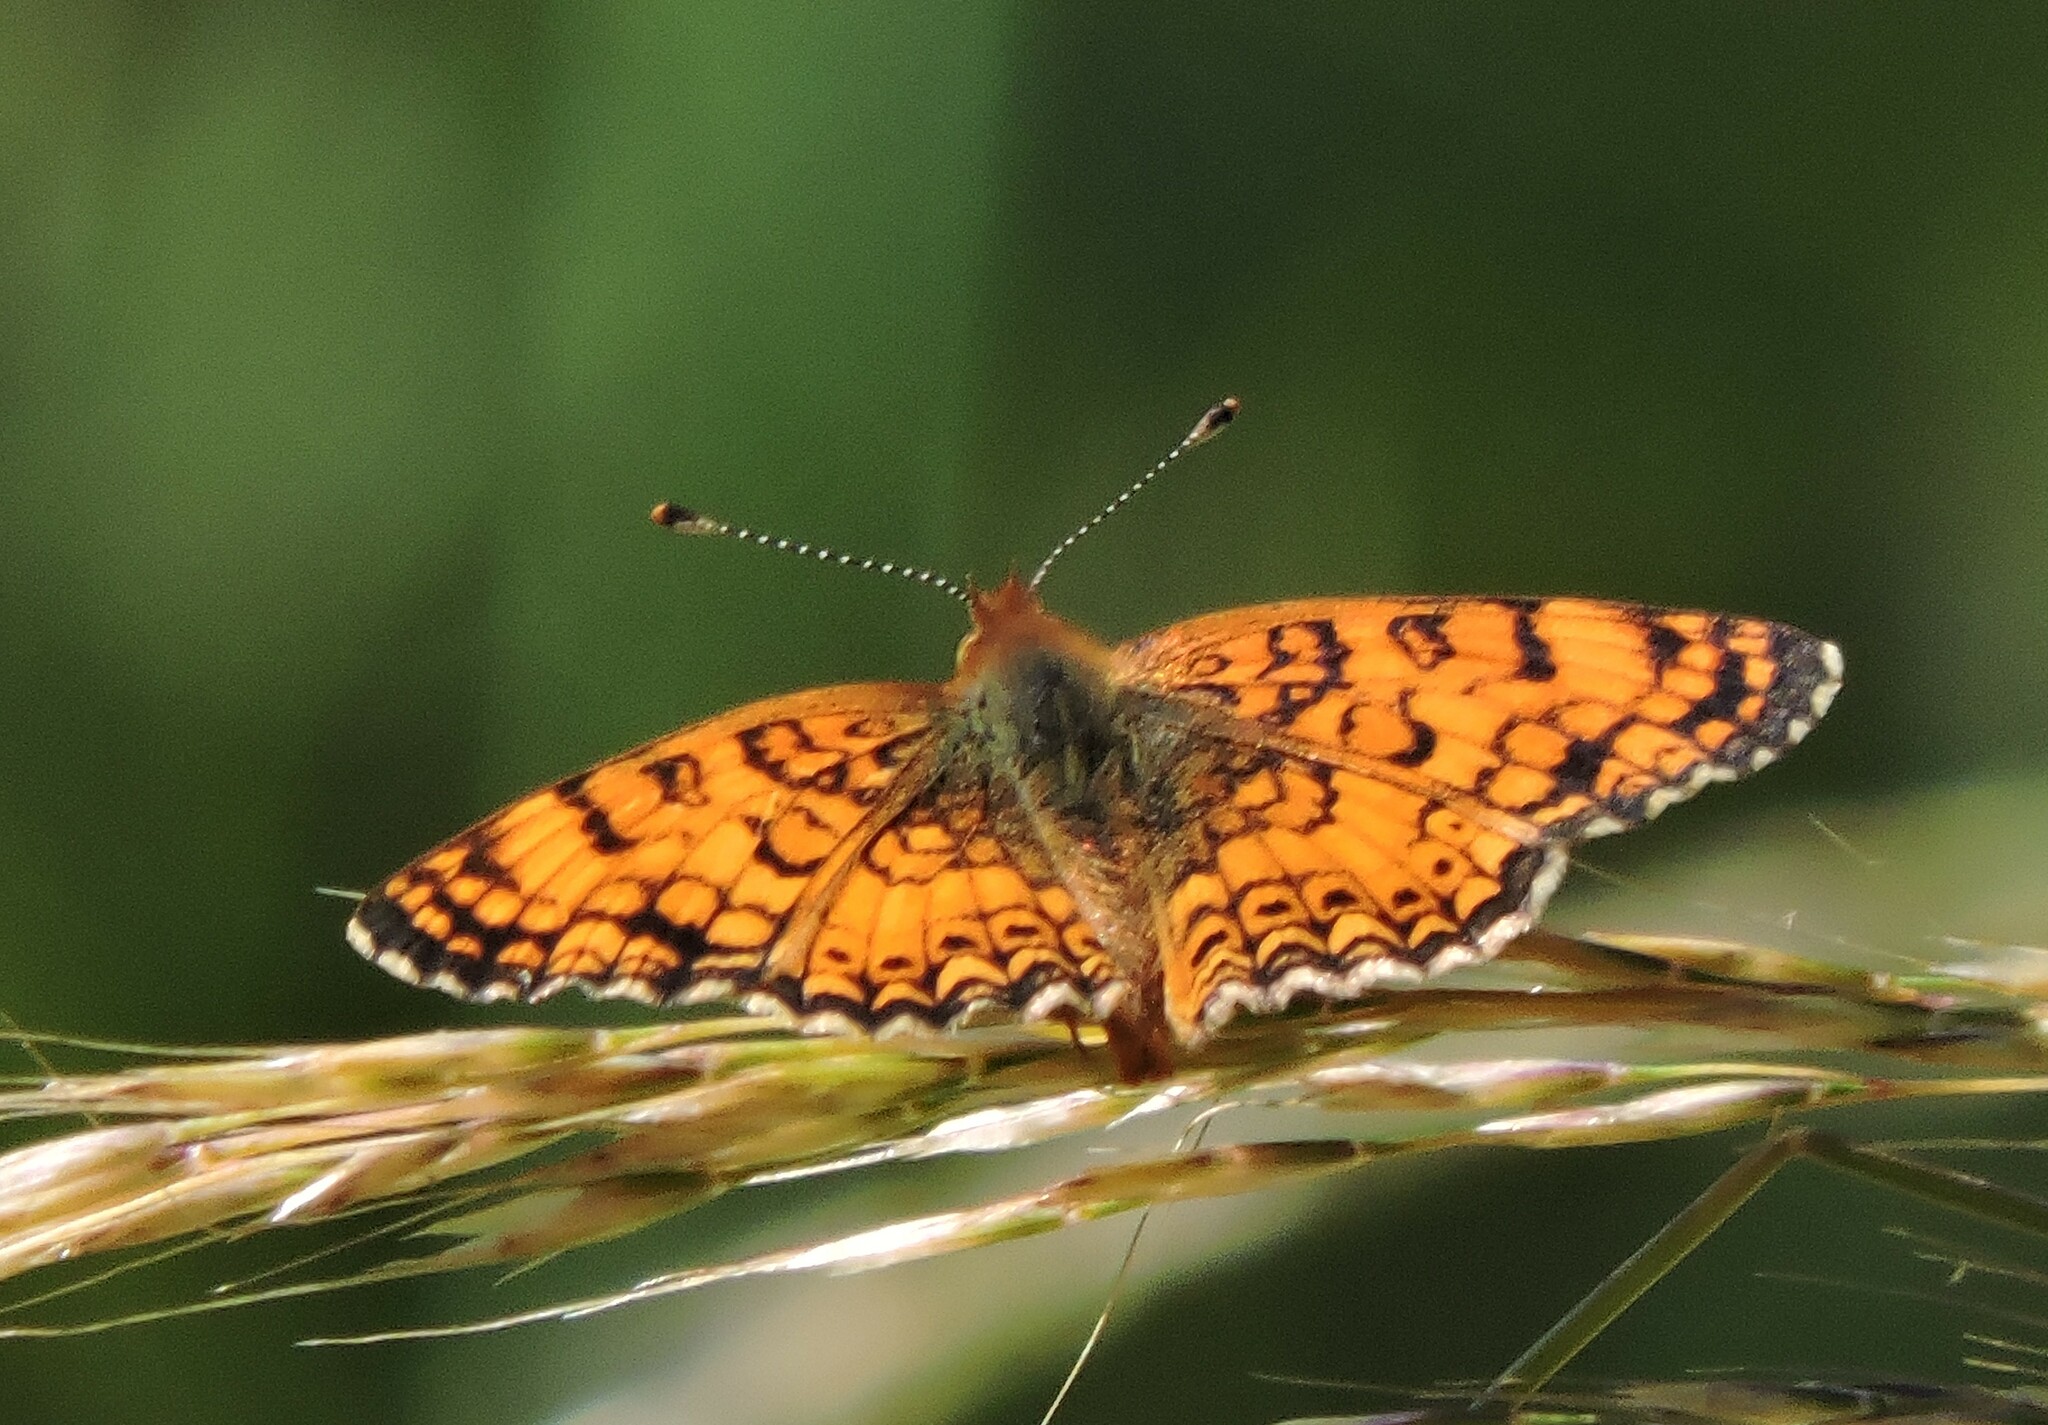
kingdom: Animalia
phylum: Arthropoda
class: Insecta
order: Lepidoptera
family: Nymphalidae
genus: Eresia
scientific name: Eresia aveyrona
